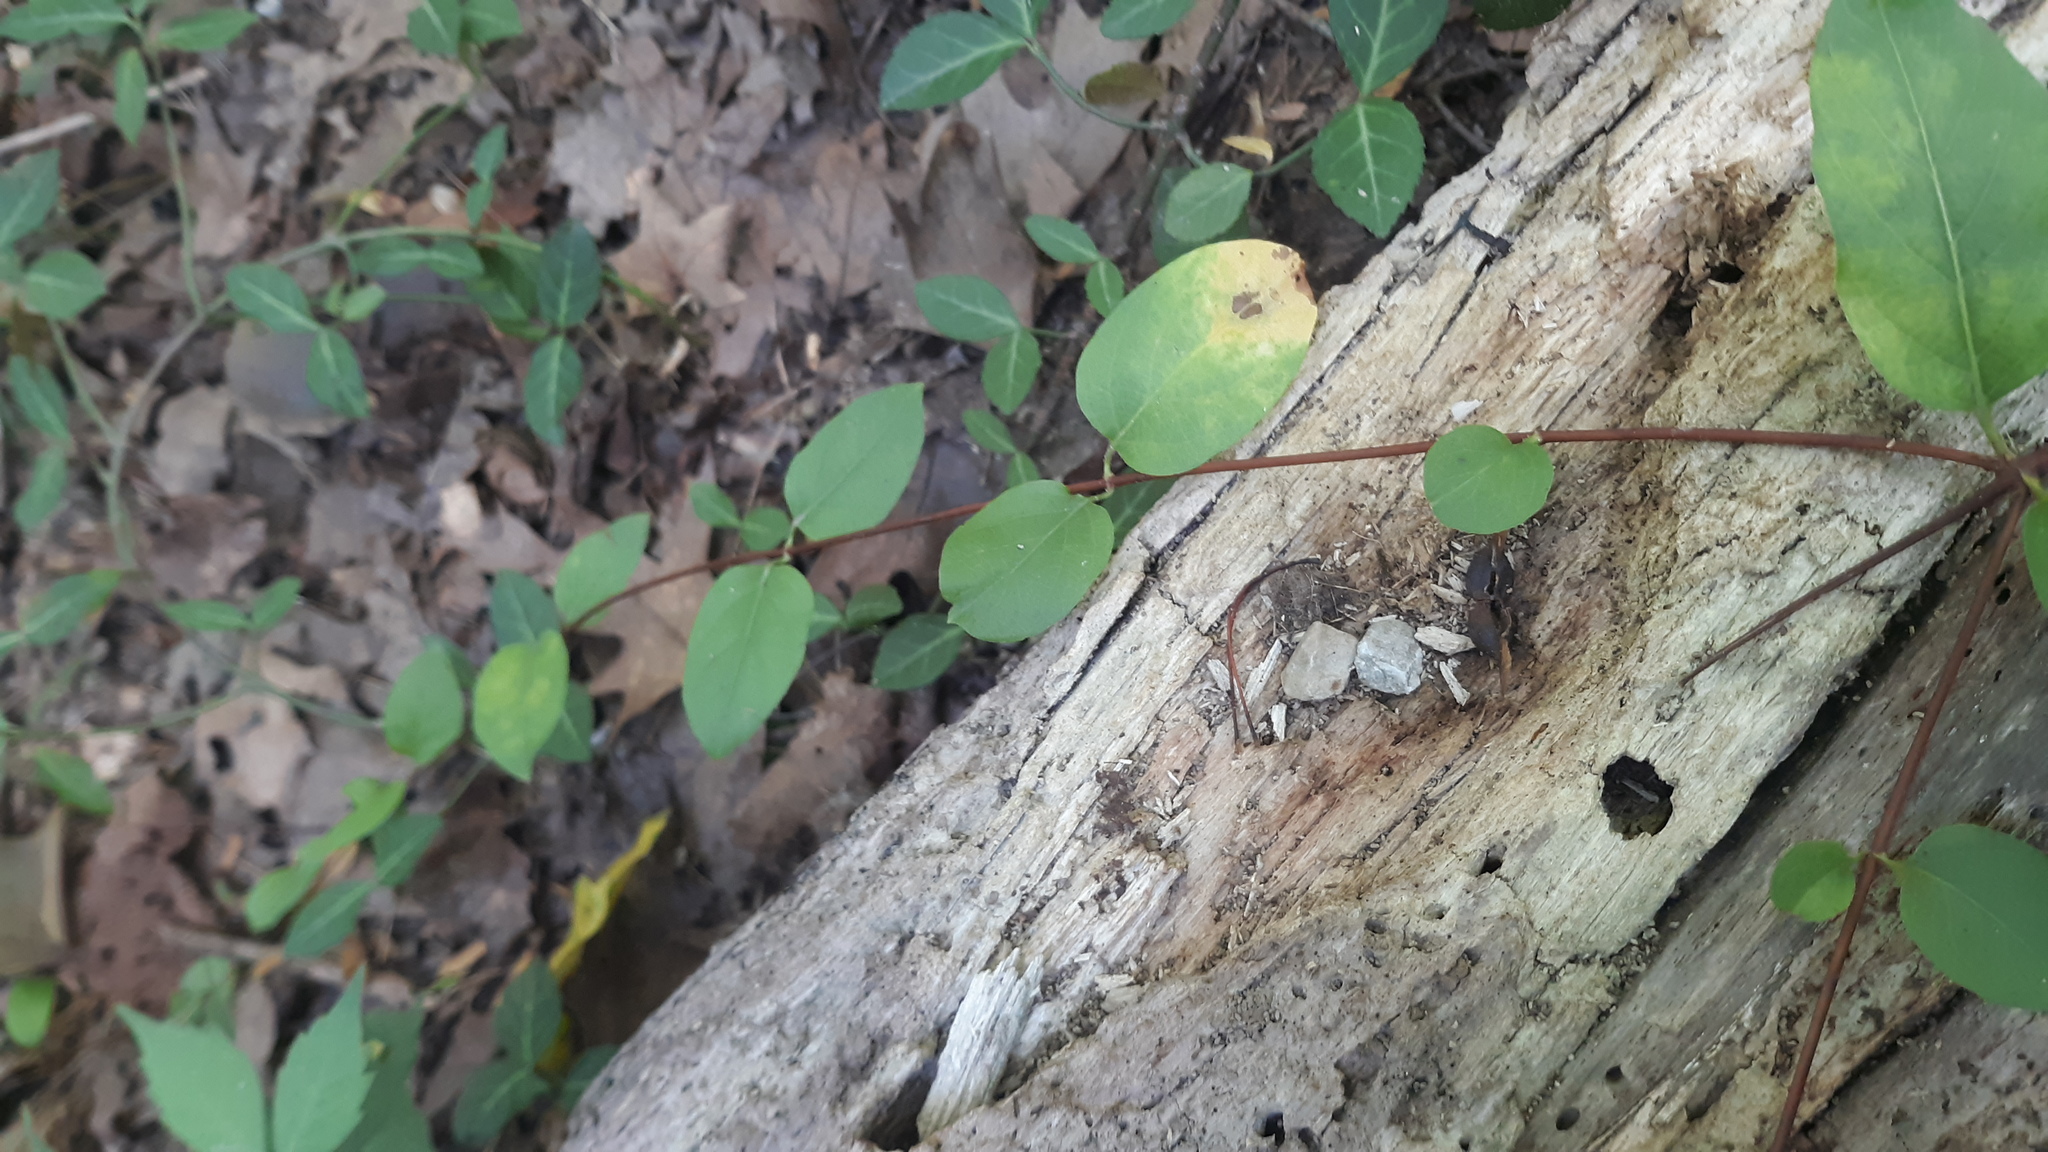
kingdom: Plantae
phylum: Tracheophyta
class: Magnoliopsida
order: Dipsacales
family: Caprifoliaceae
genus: Lonicera
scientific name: Lonicera japonica
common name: Japanese honeysuckle
